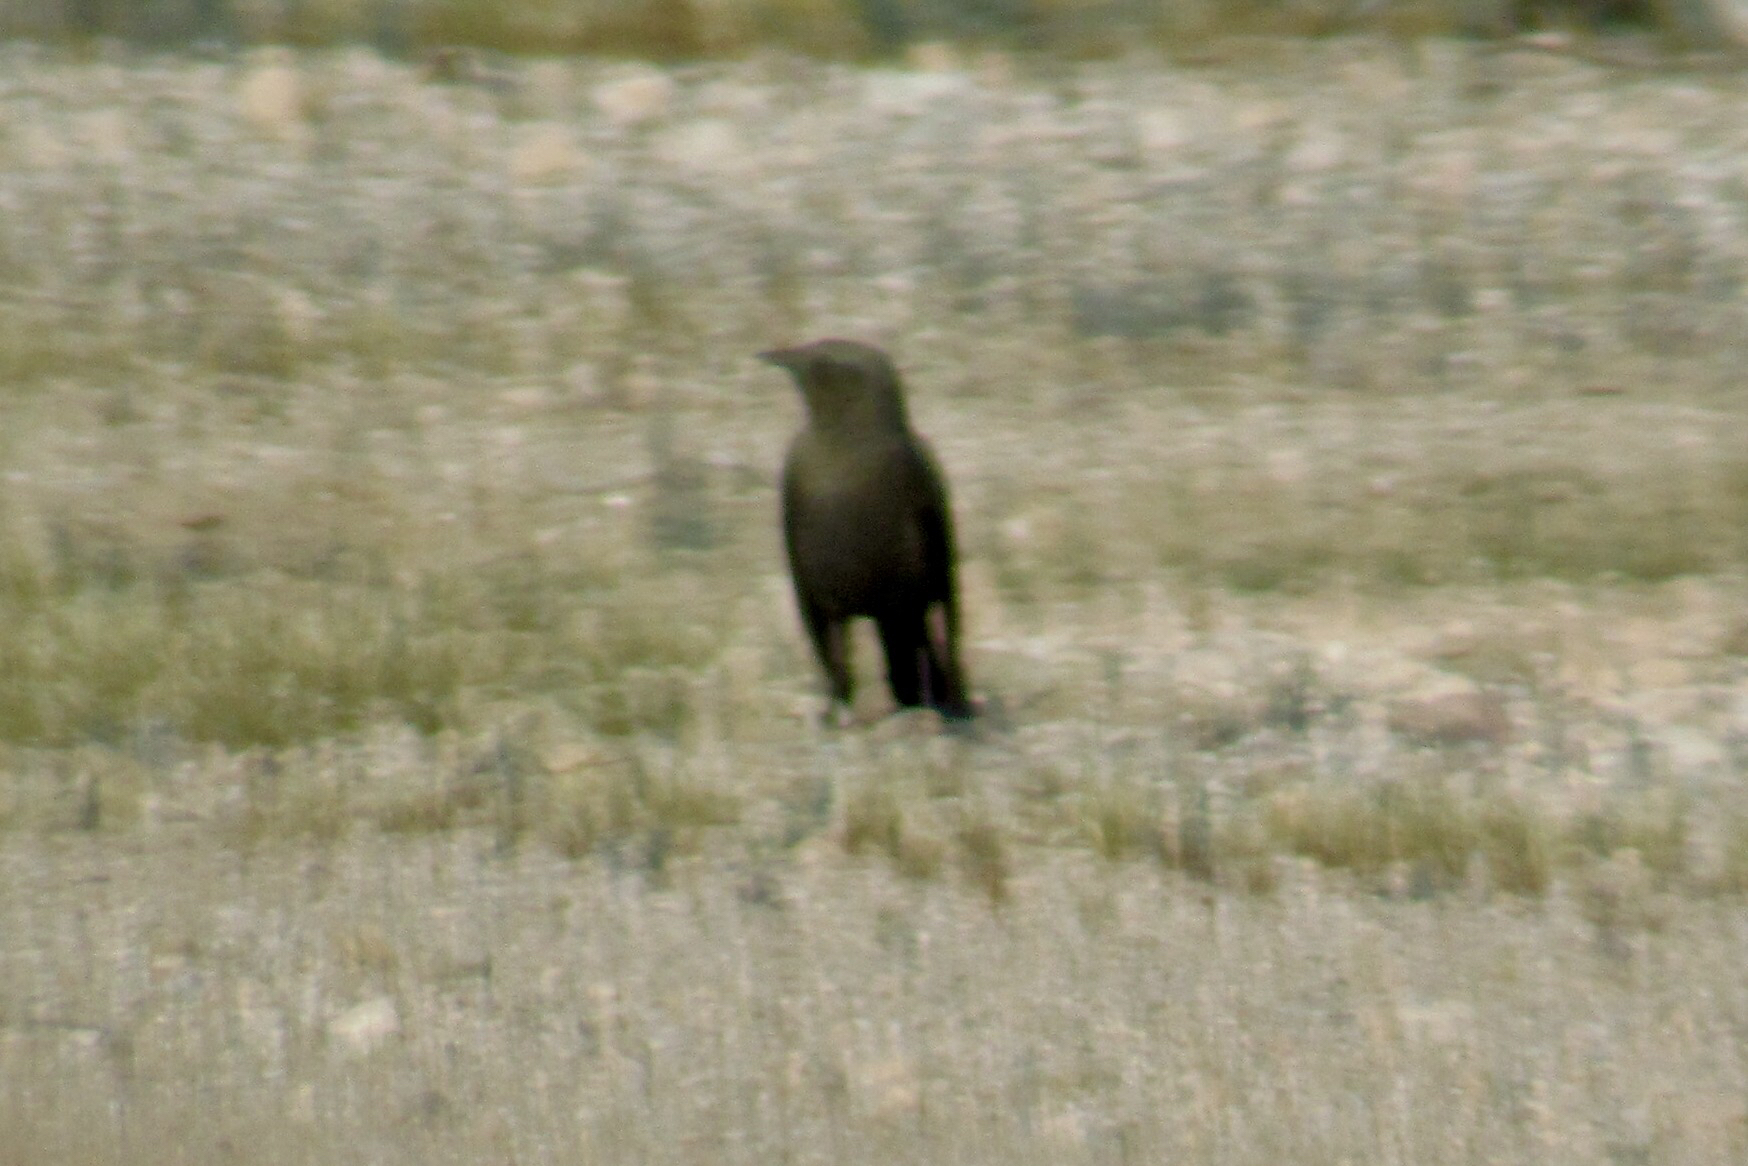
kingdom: Animalia
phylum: Chordata
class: Aves
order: Passeriformes
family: Icteridae
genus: Euphagus
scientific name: Euphagus cyanocephalus
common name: Brewer's blackbird
